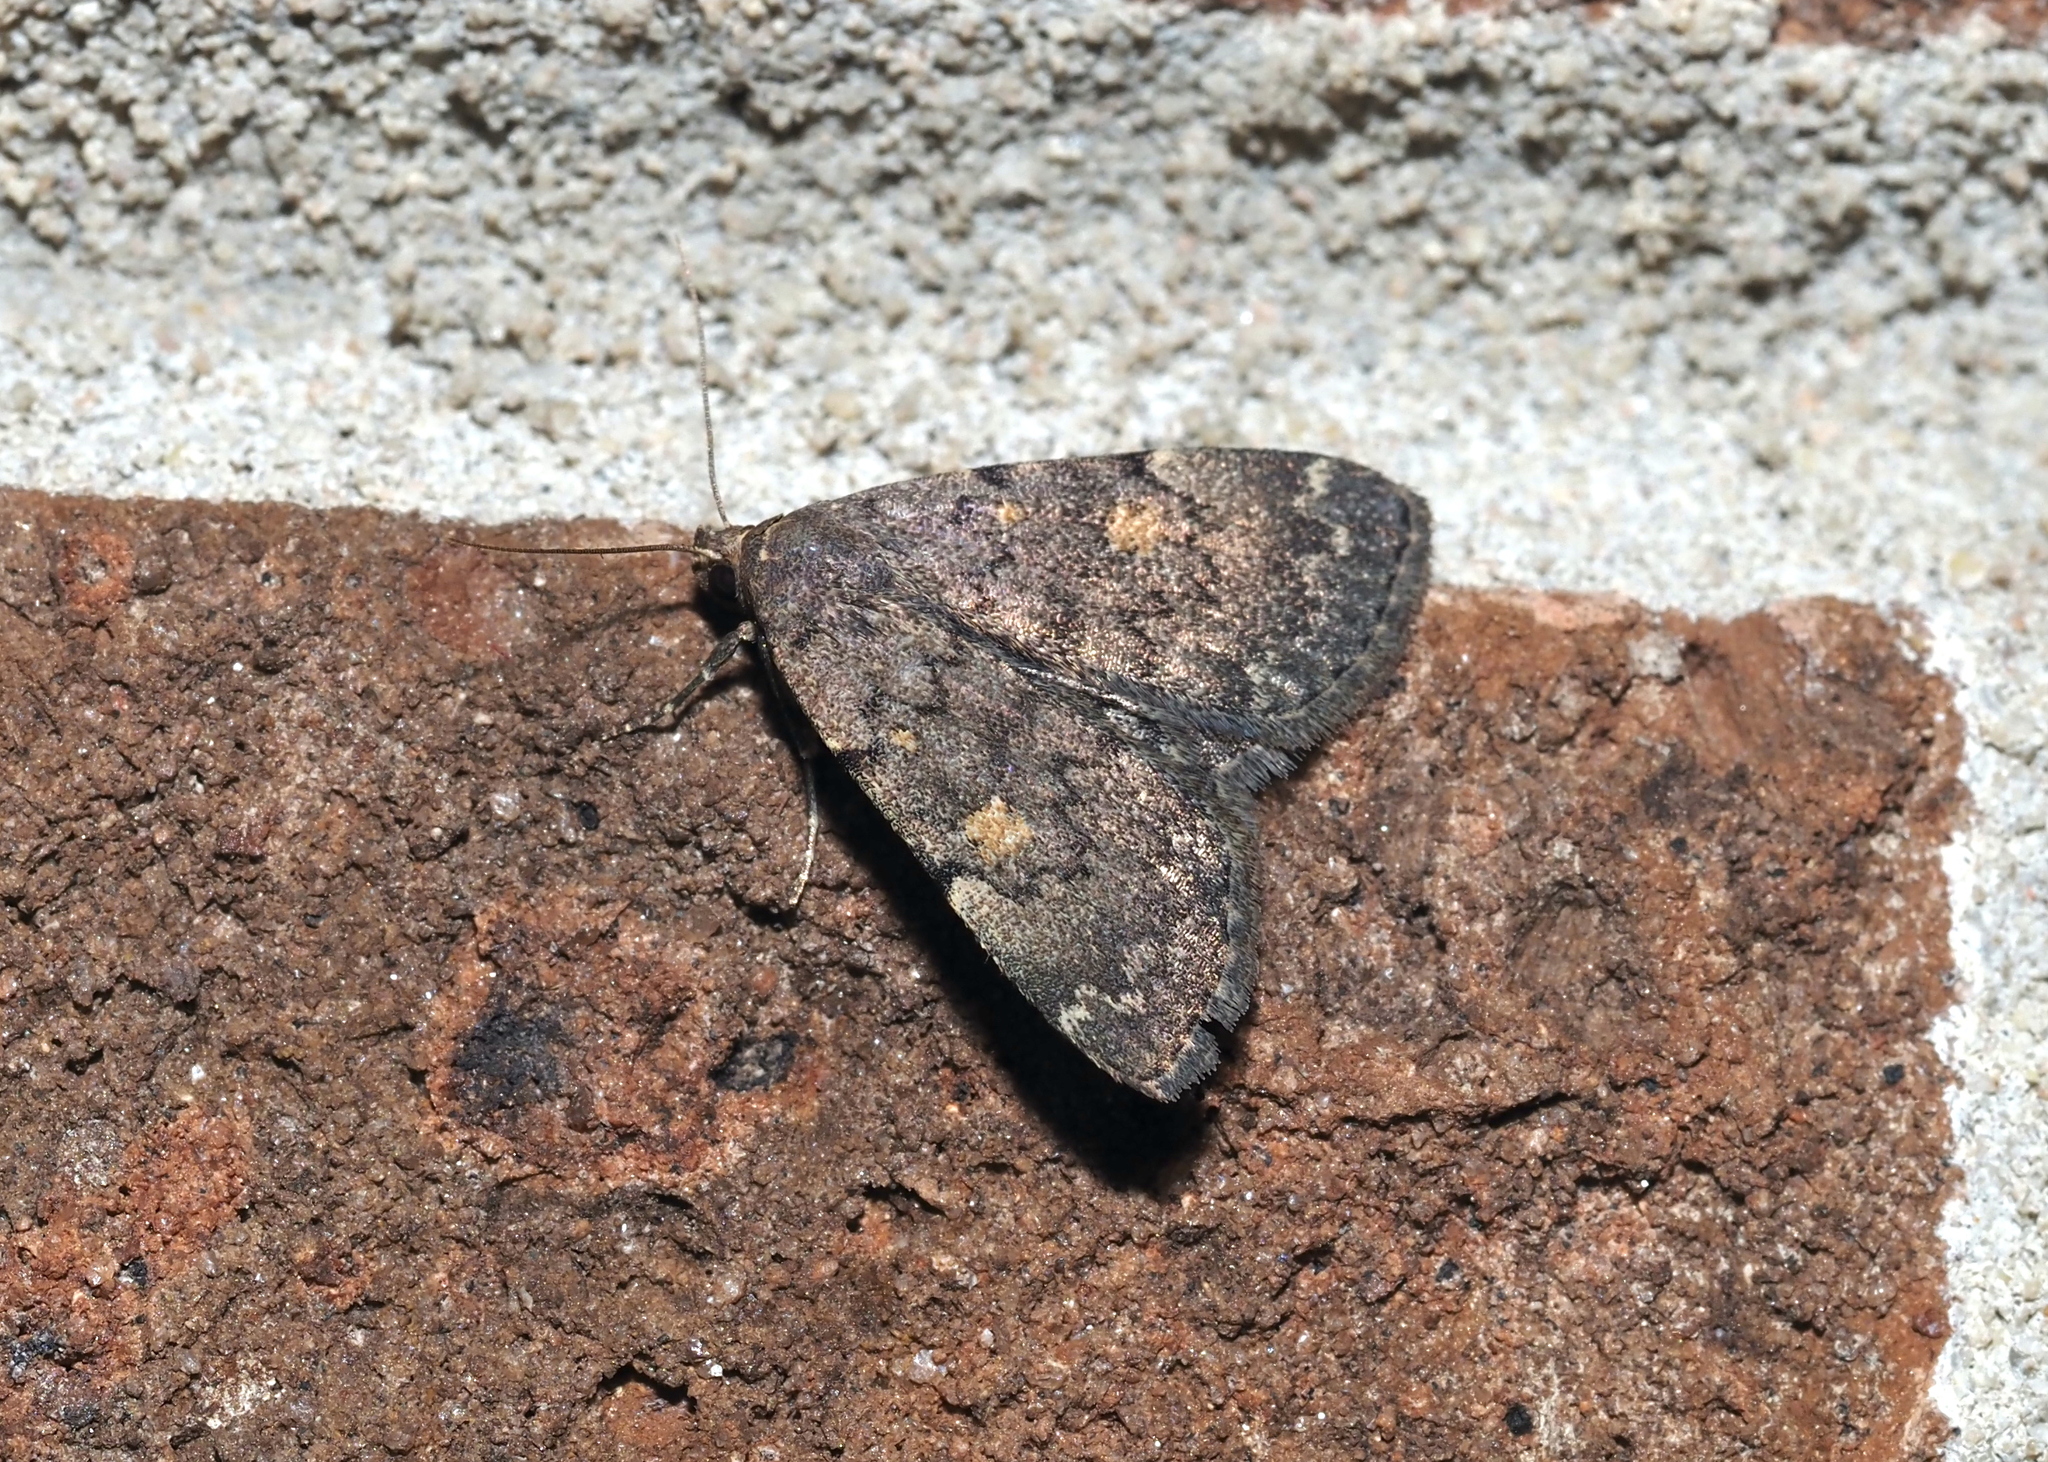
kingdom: Animalia
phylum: Arthropoda
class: Insecta
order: Lepidoptera
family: Erebidae
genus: Idia
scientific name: Idia aemula
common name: Common idia moth
